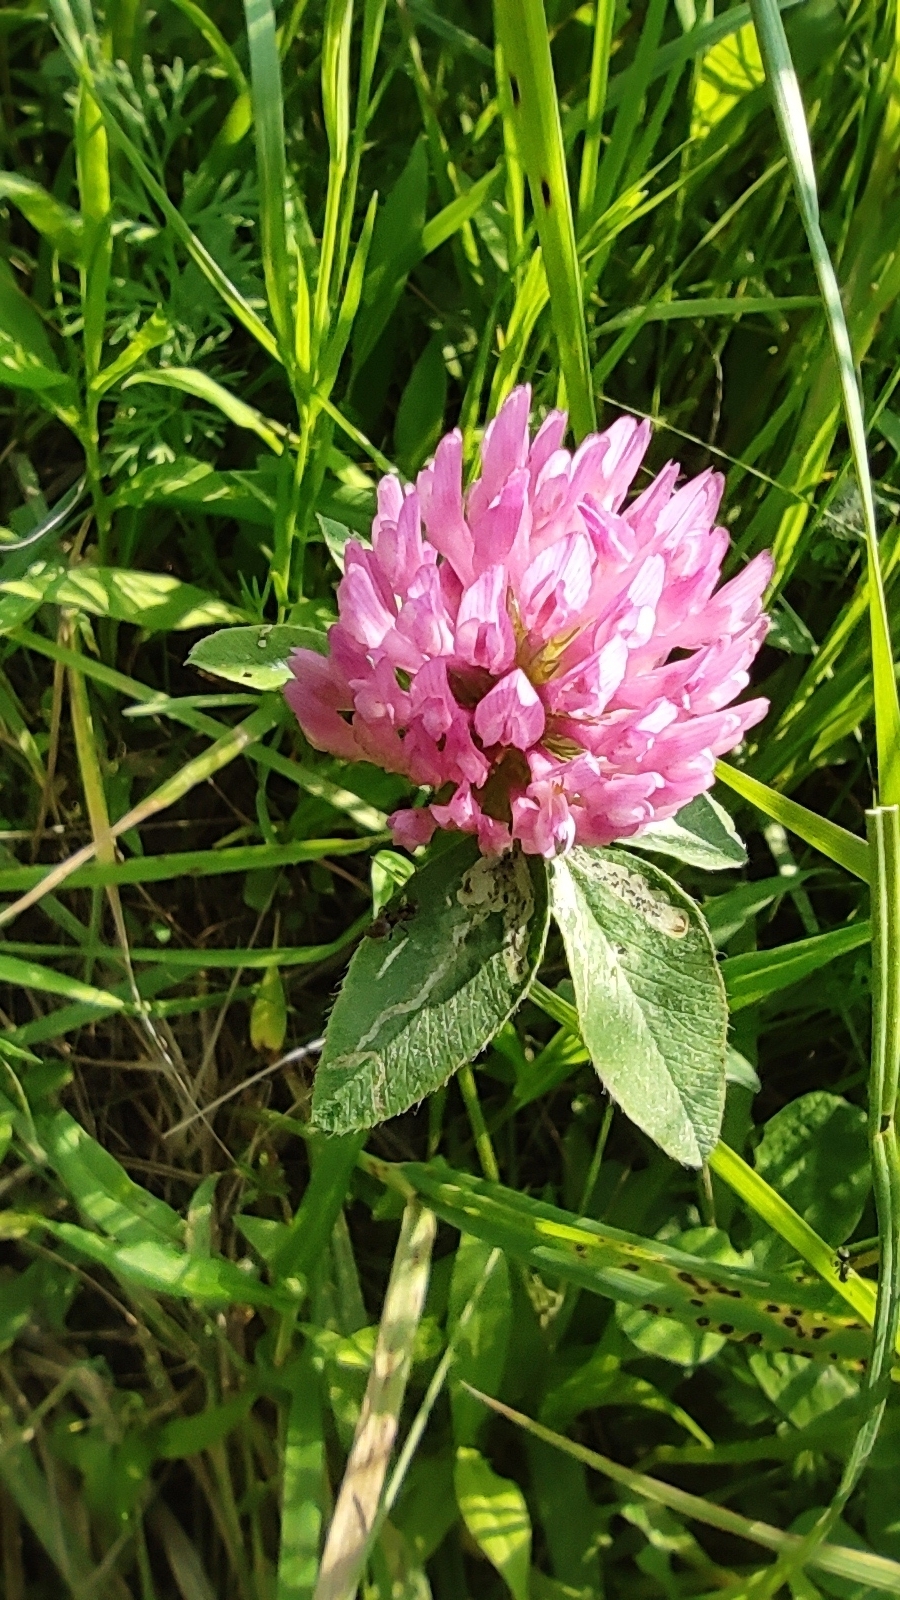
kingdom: Plantae
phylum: Tracheophyta
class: Magnoliopsida
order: Fabales
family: Fabaceae
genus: Trifolium
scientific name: Trifolium pratense
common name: Red clover
